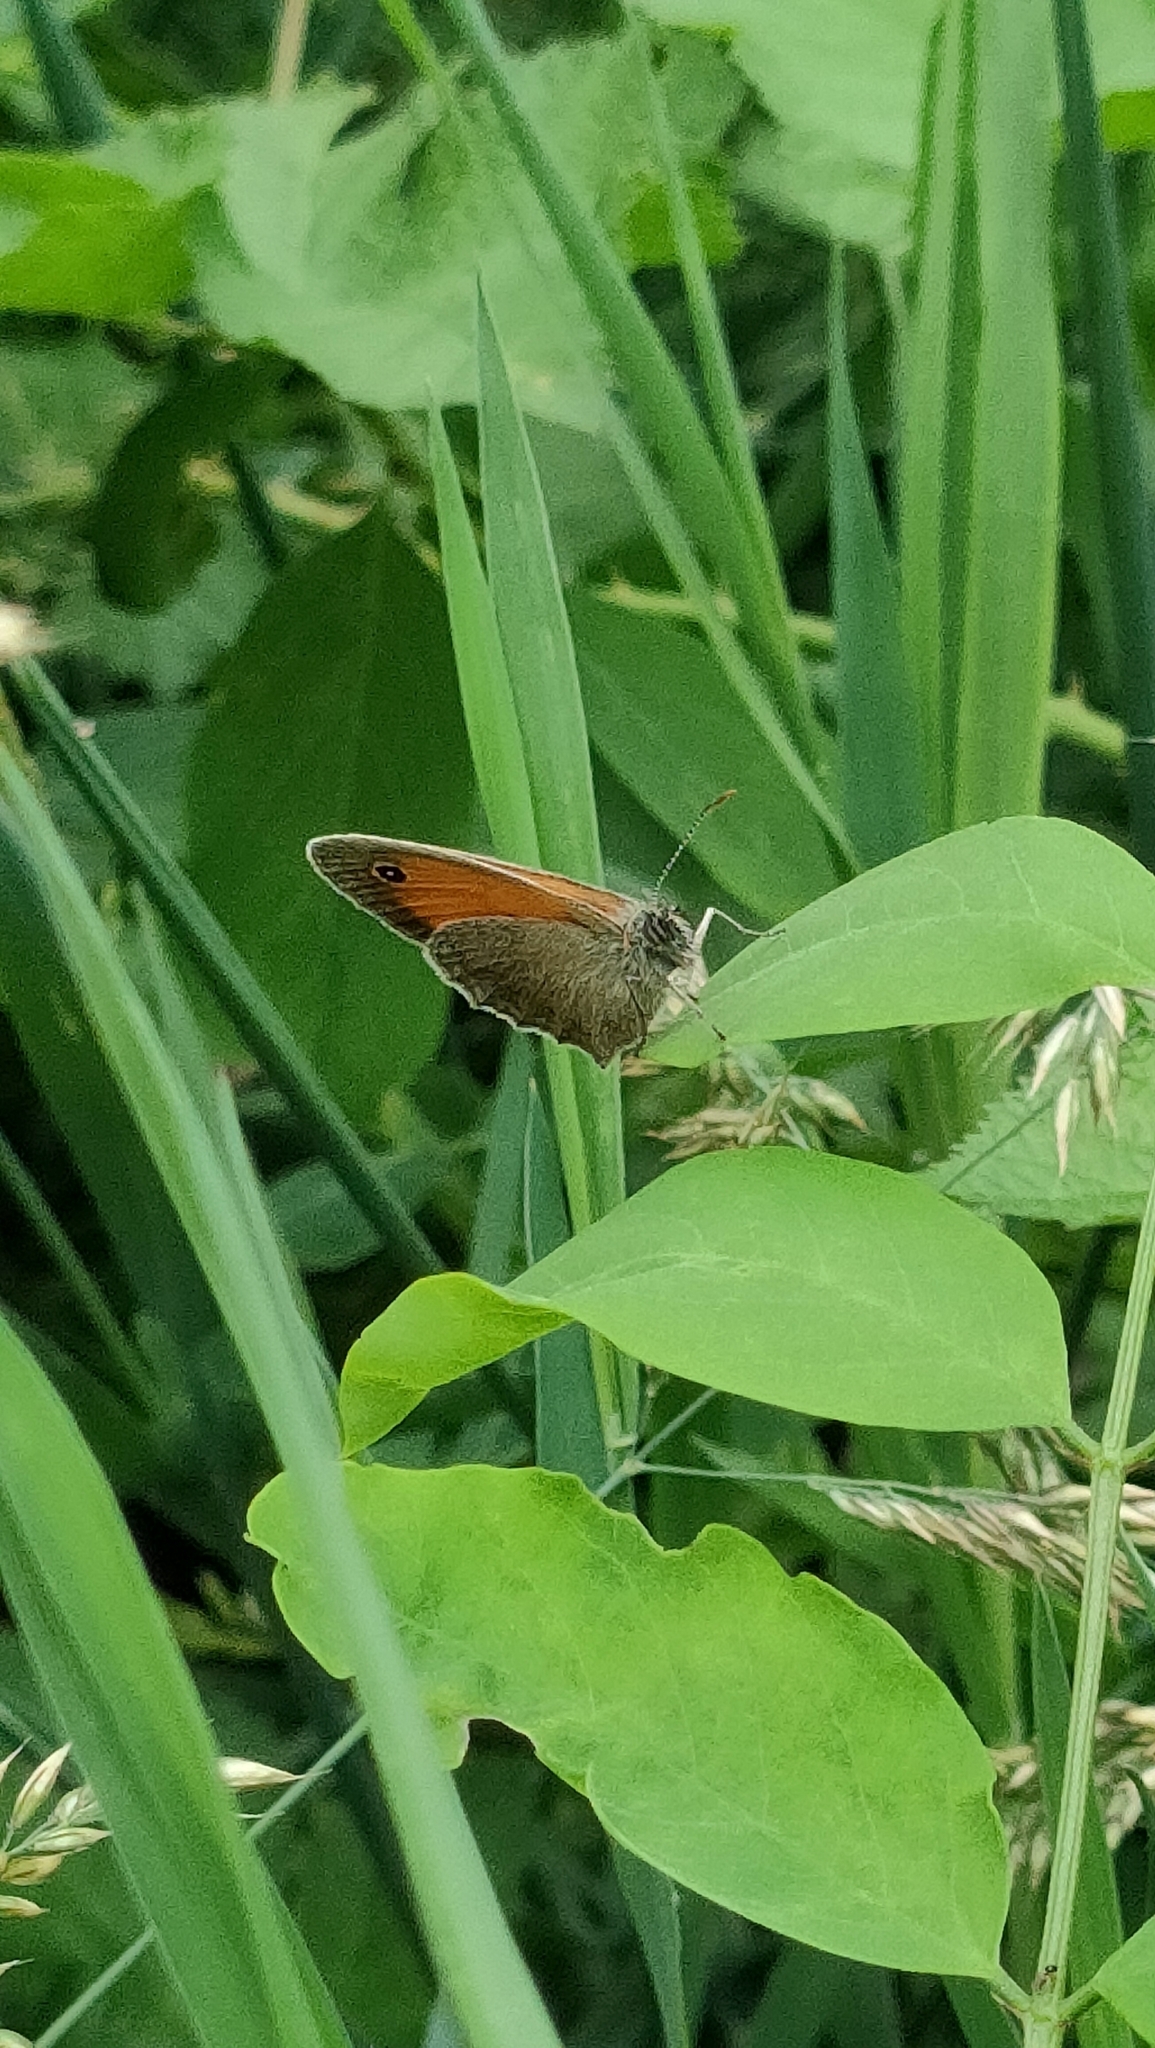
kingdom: Animalia
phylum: Arthropoda
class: Insecta
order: Lepidoptera
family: Nymphalidae
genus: Coenonympha
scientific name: Coenonympha pamphilus
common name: Small heath
